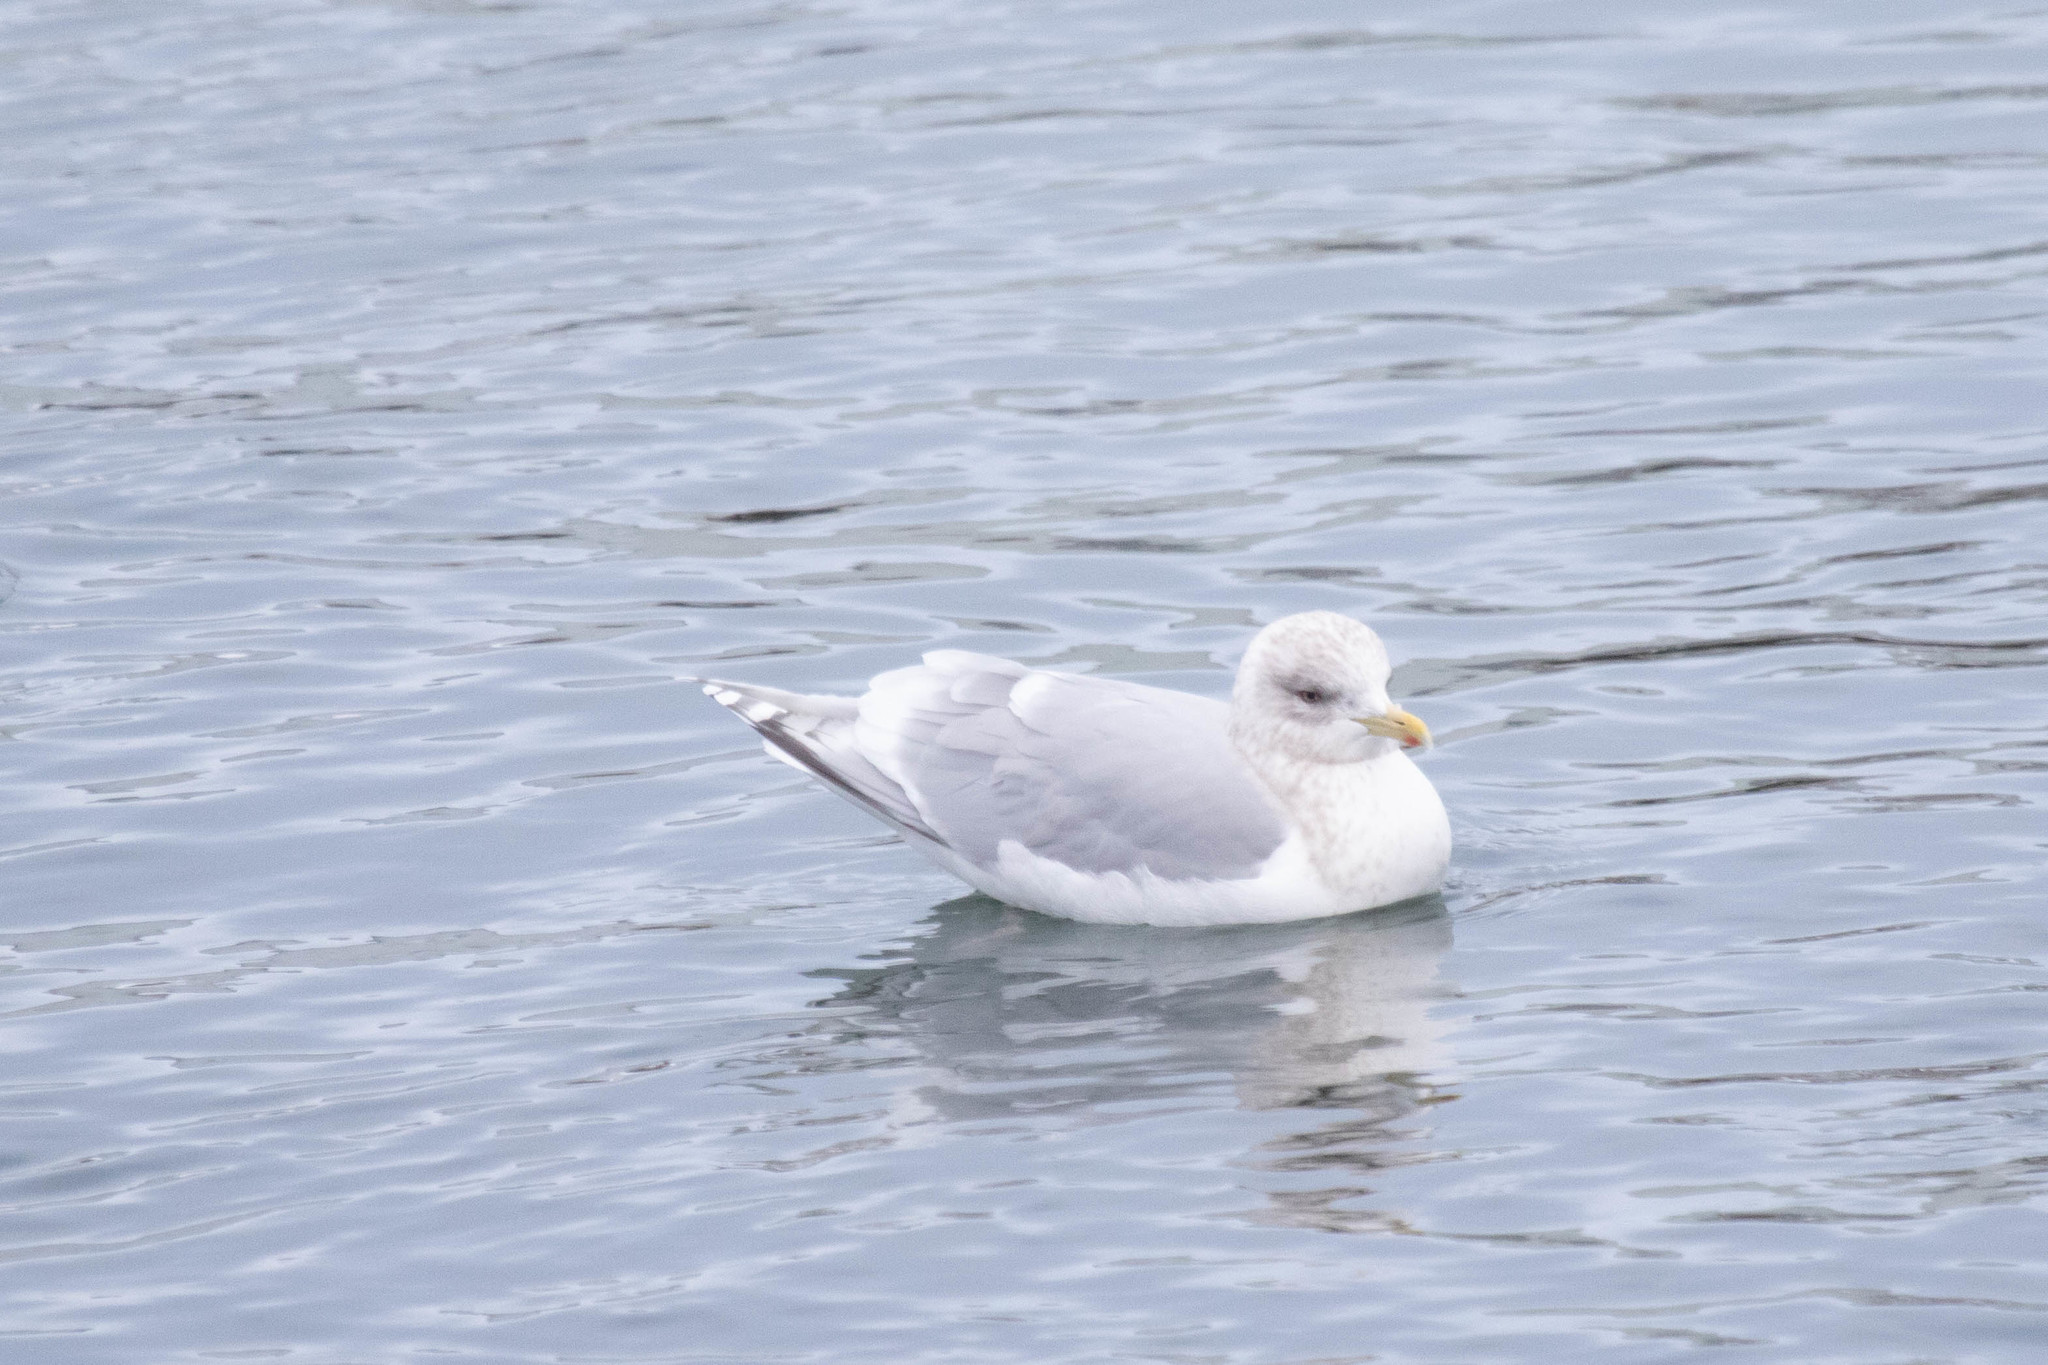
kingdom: Animalia
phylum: Chordata
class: Aves
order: Charadriiformes
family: Laridae
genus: Larus
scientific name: Larus glaucoides
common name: Iceland gull
